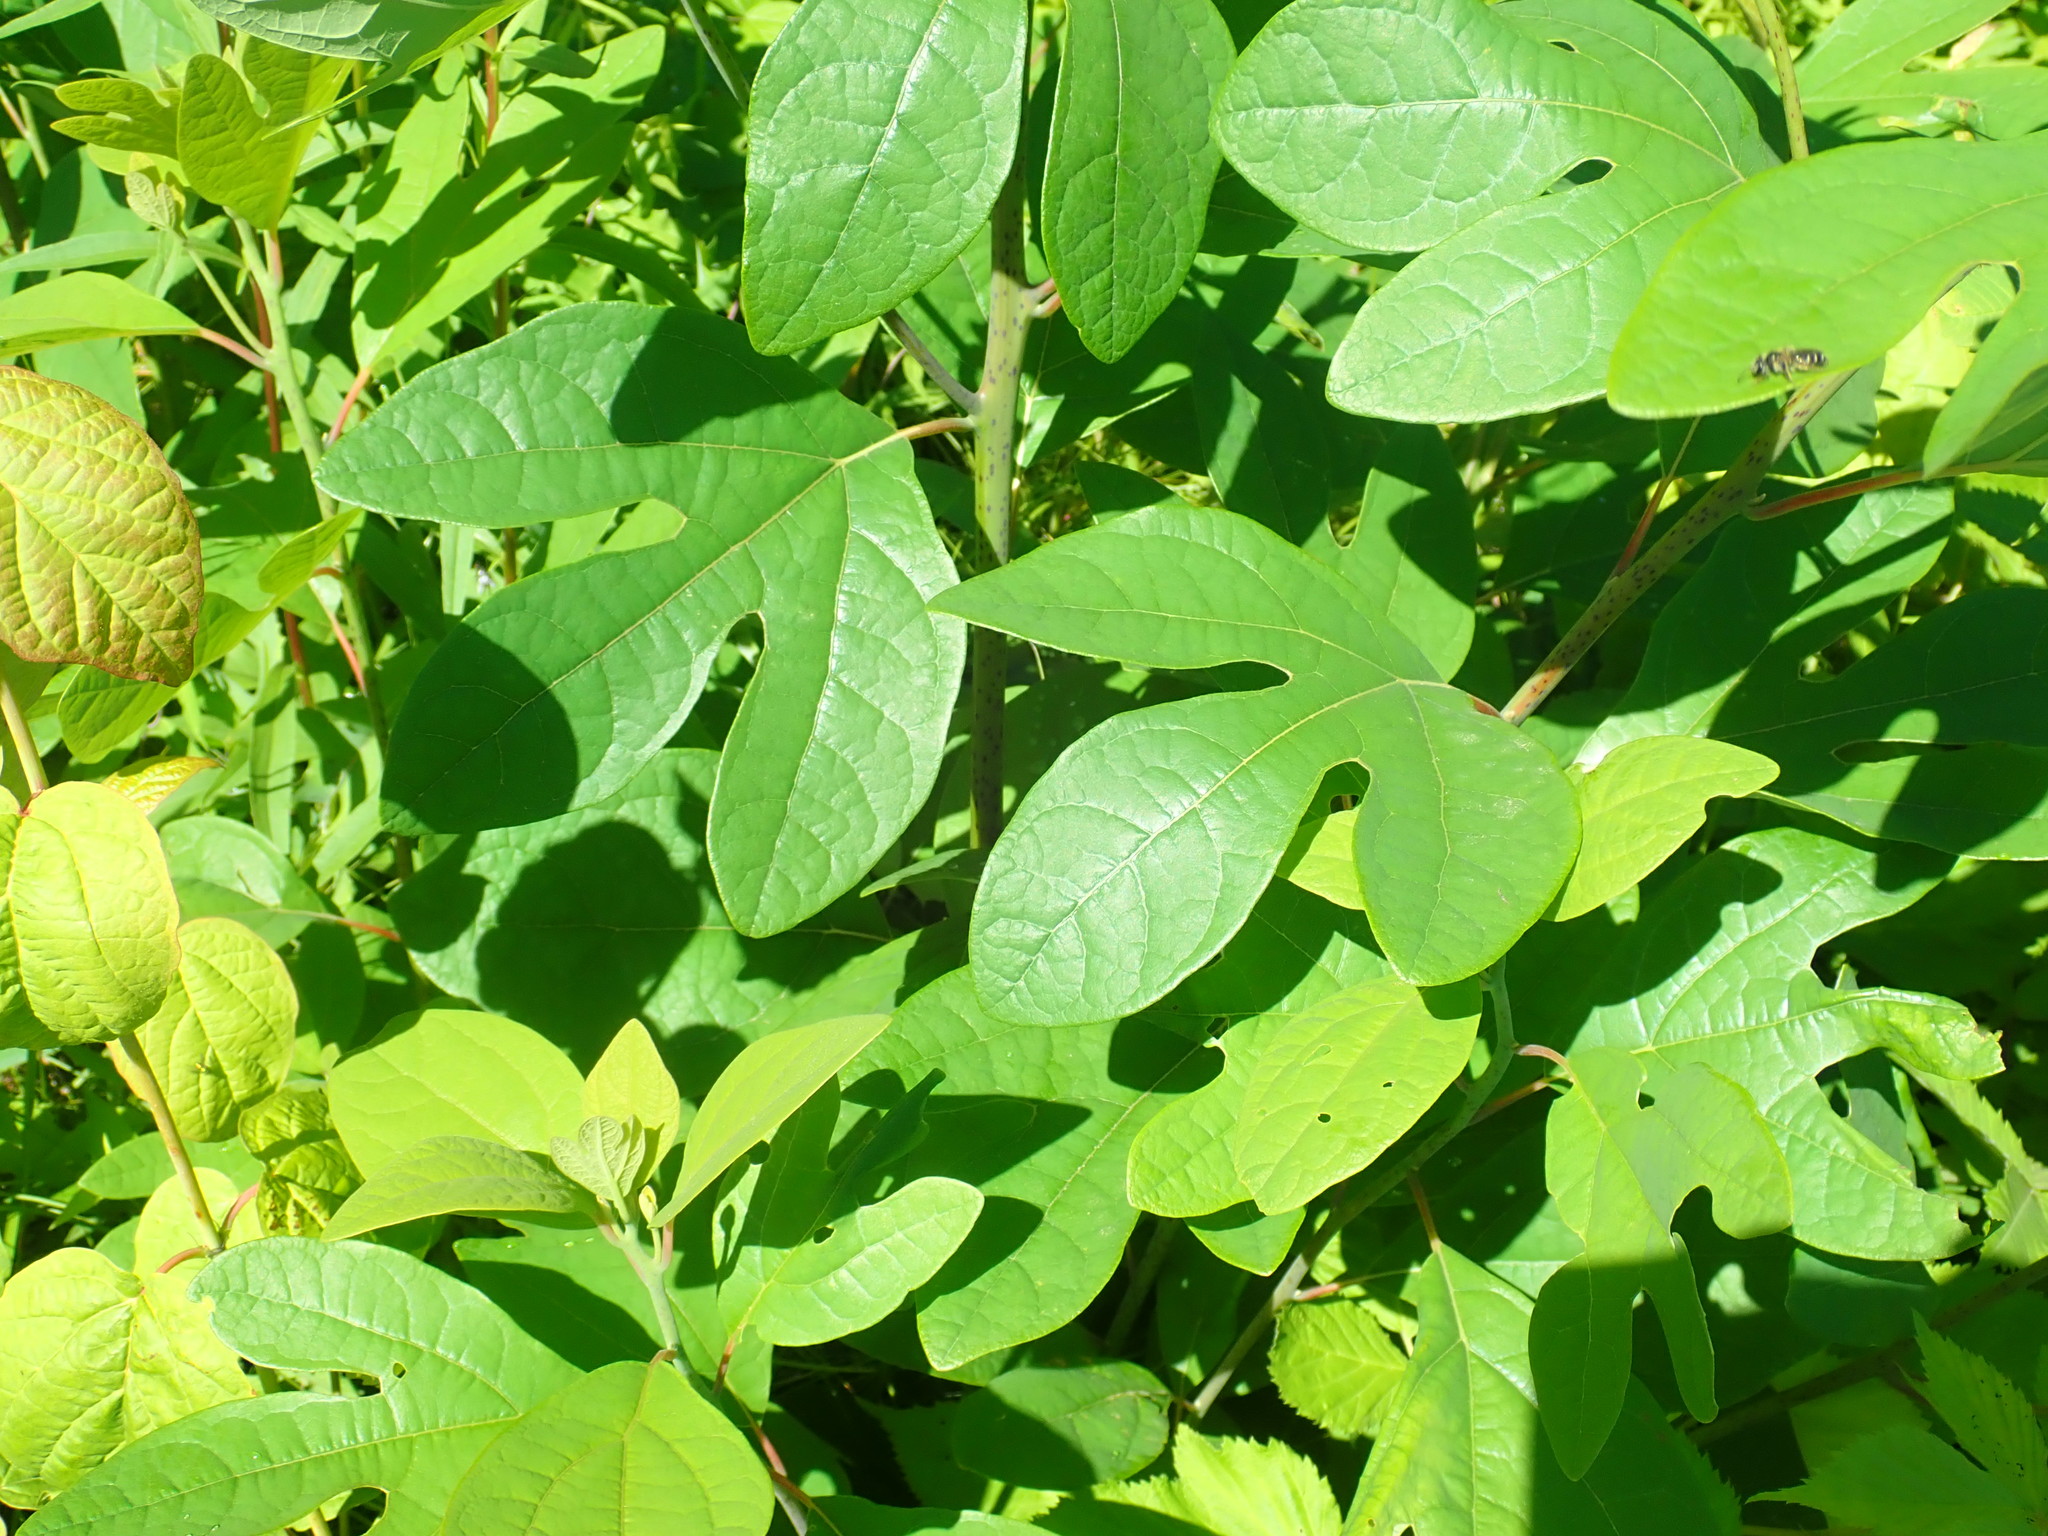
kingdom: Plantae
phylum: Tracheophyta
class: Magnoliopsida
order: Laurales
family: Lauraceae
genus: Sassafras
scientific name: Sassafras albidum
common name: Sassafras
